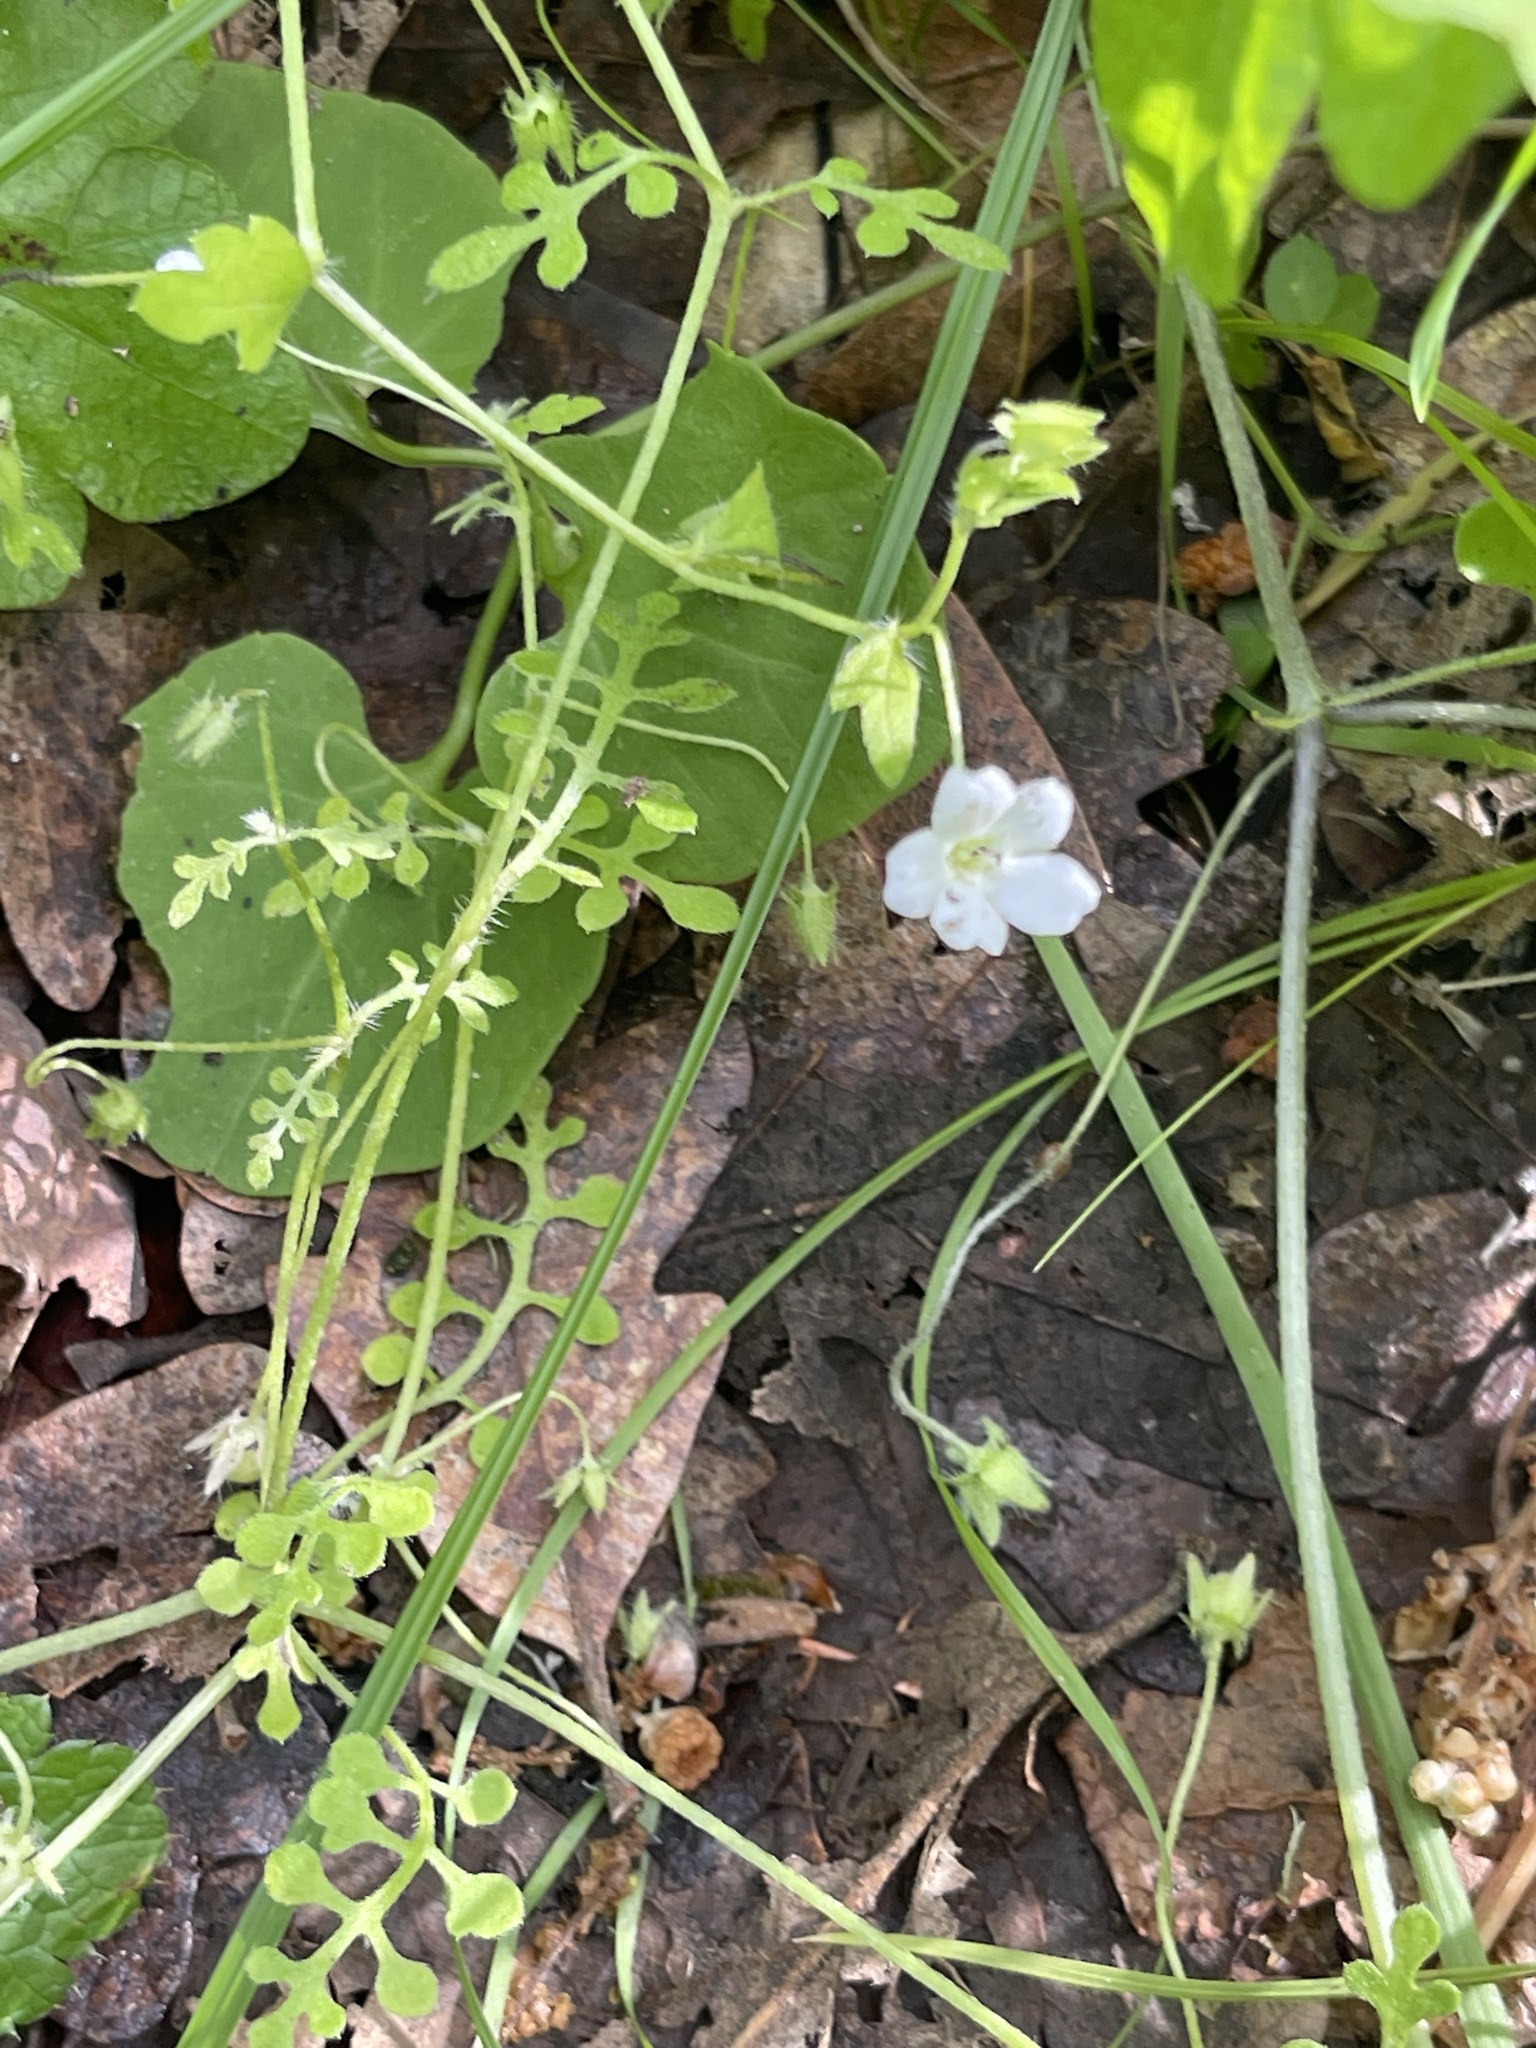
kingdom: Plantae
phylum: Tracheophyta
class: Magnoliopsida
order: Boraginales
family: Hydrophyllaceae
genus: Nemophila
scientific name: Nemophila heterophylla
